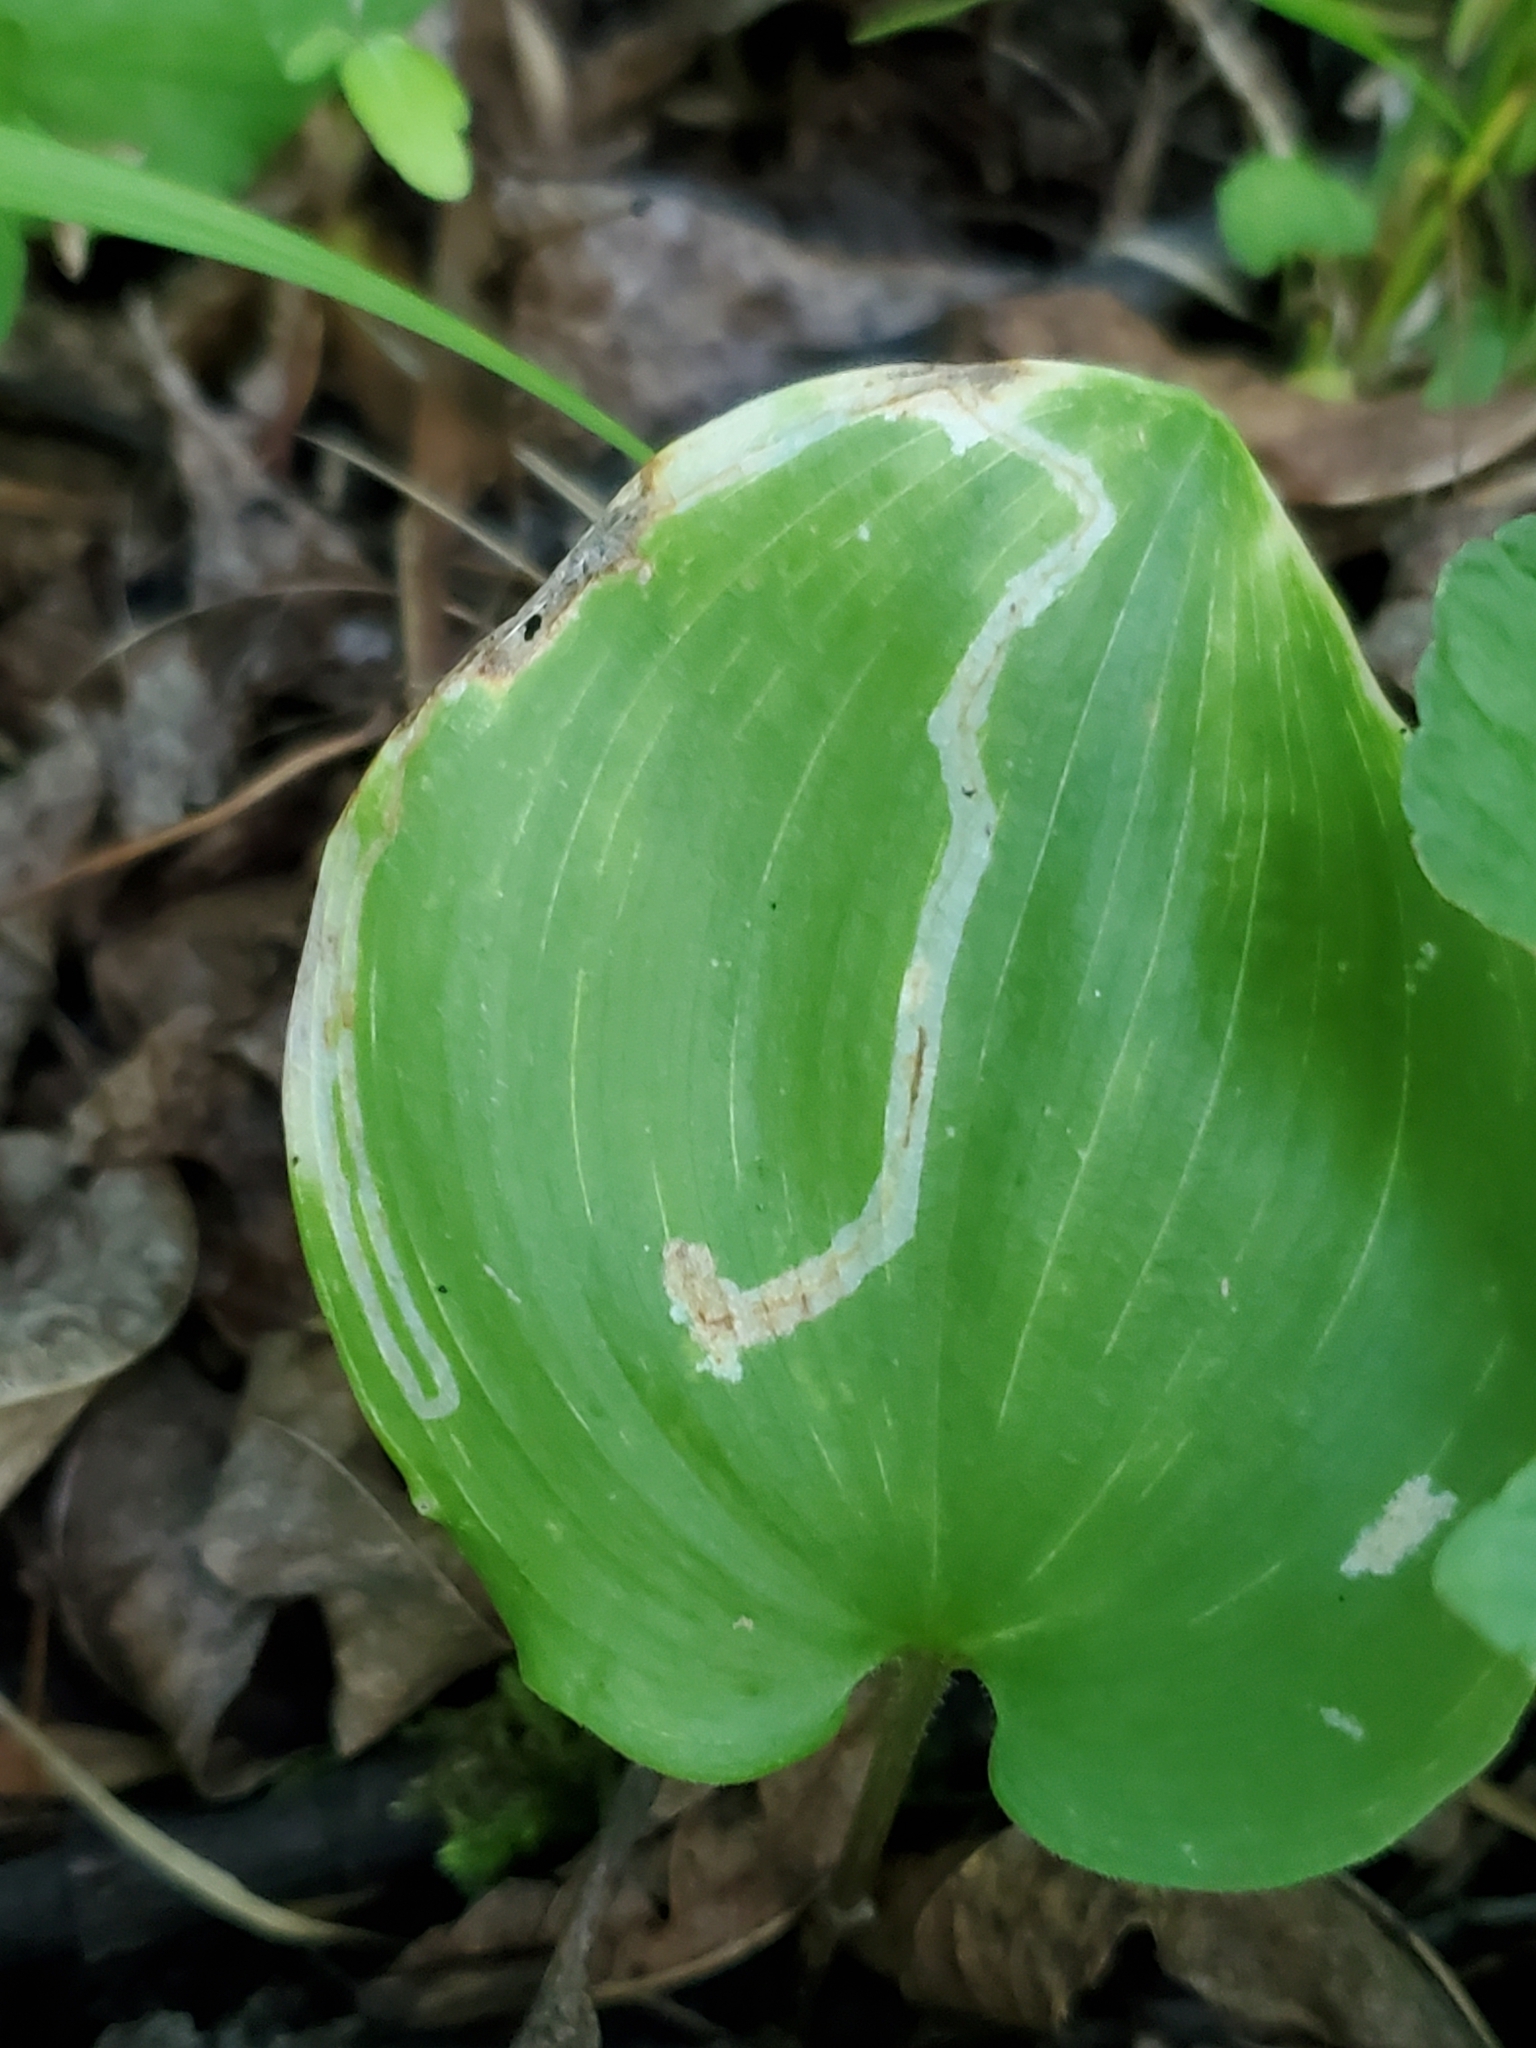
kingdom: Animalia
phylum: Arthropoda
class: Insecta
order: Diptera
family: Agromyzidae
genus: Liriomyza
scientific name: Liriomyza smilacinae
